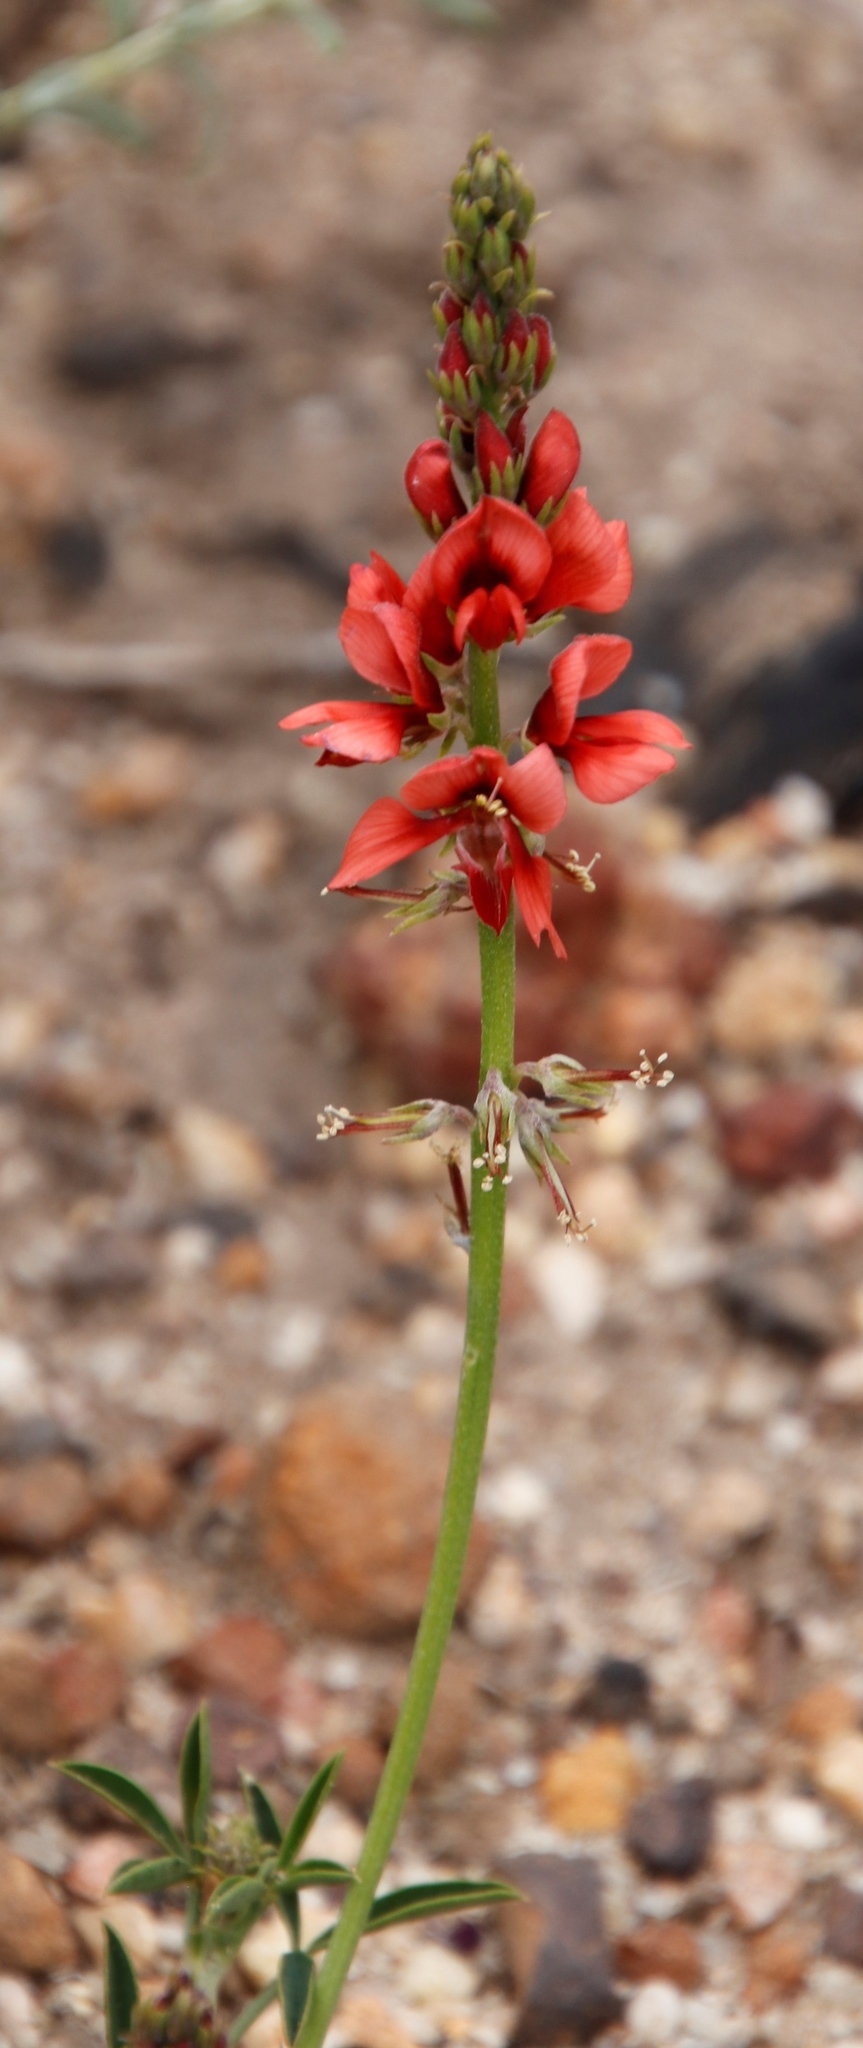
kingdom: Plantae
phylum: Tracheophyta
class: Magnoliopsida
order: Fabales
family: Fabaceae
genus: Indigofera
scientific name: Indigofera complanata
